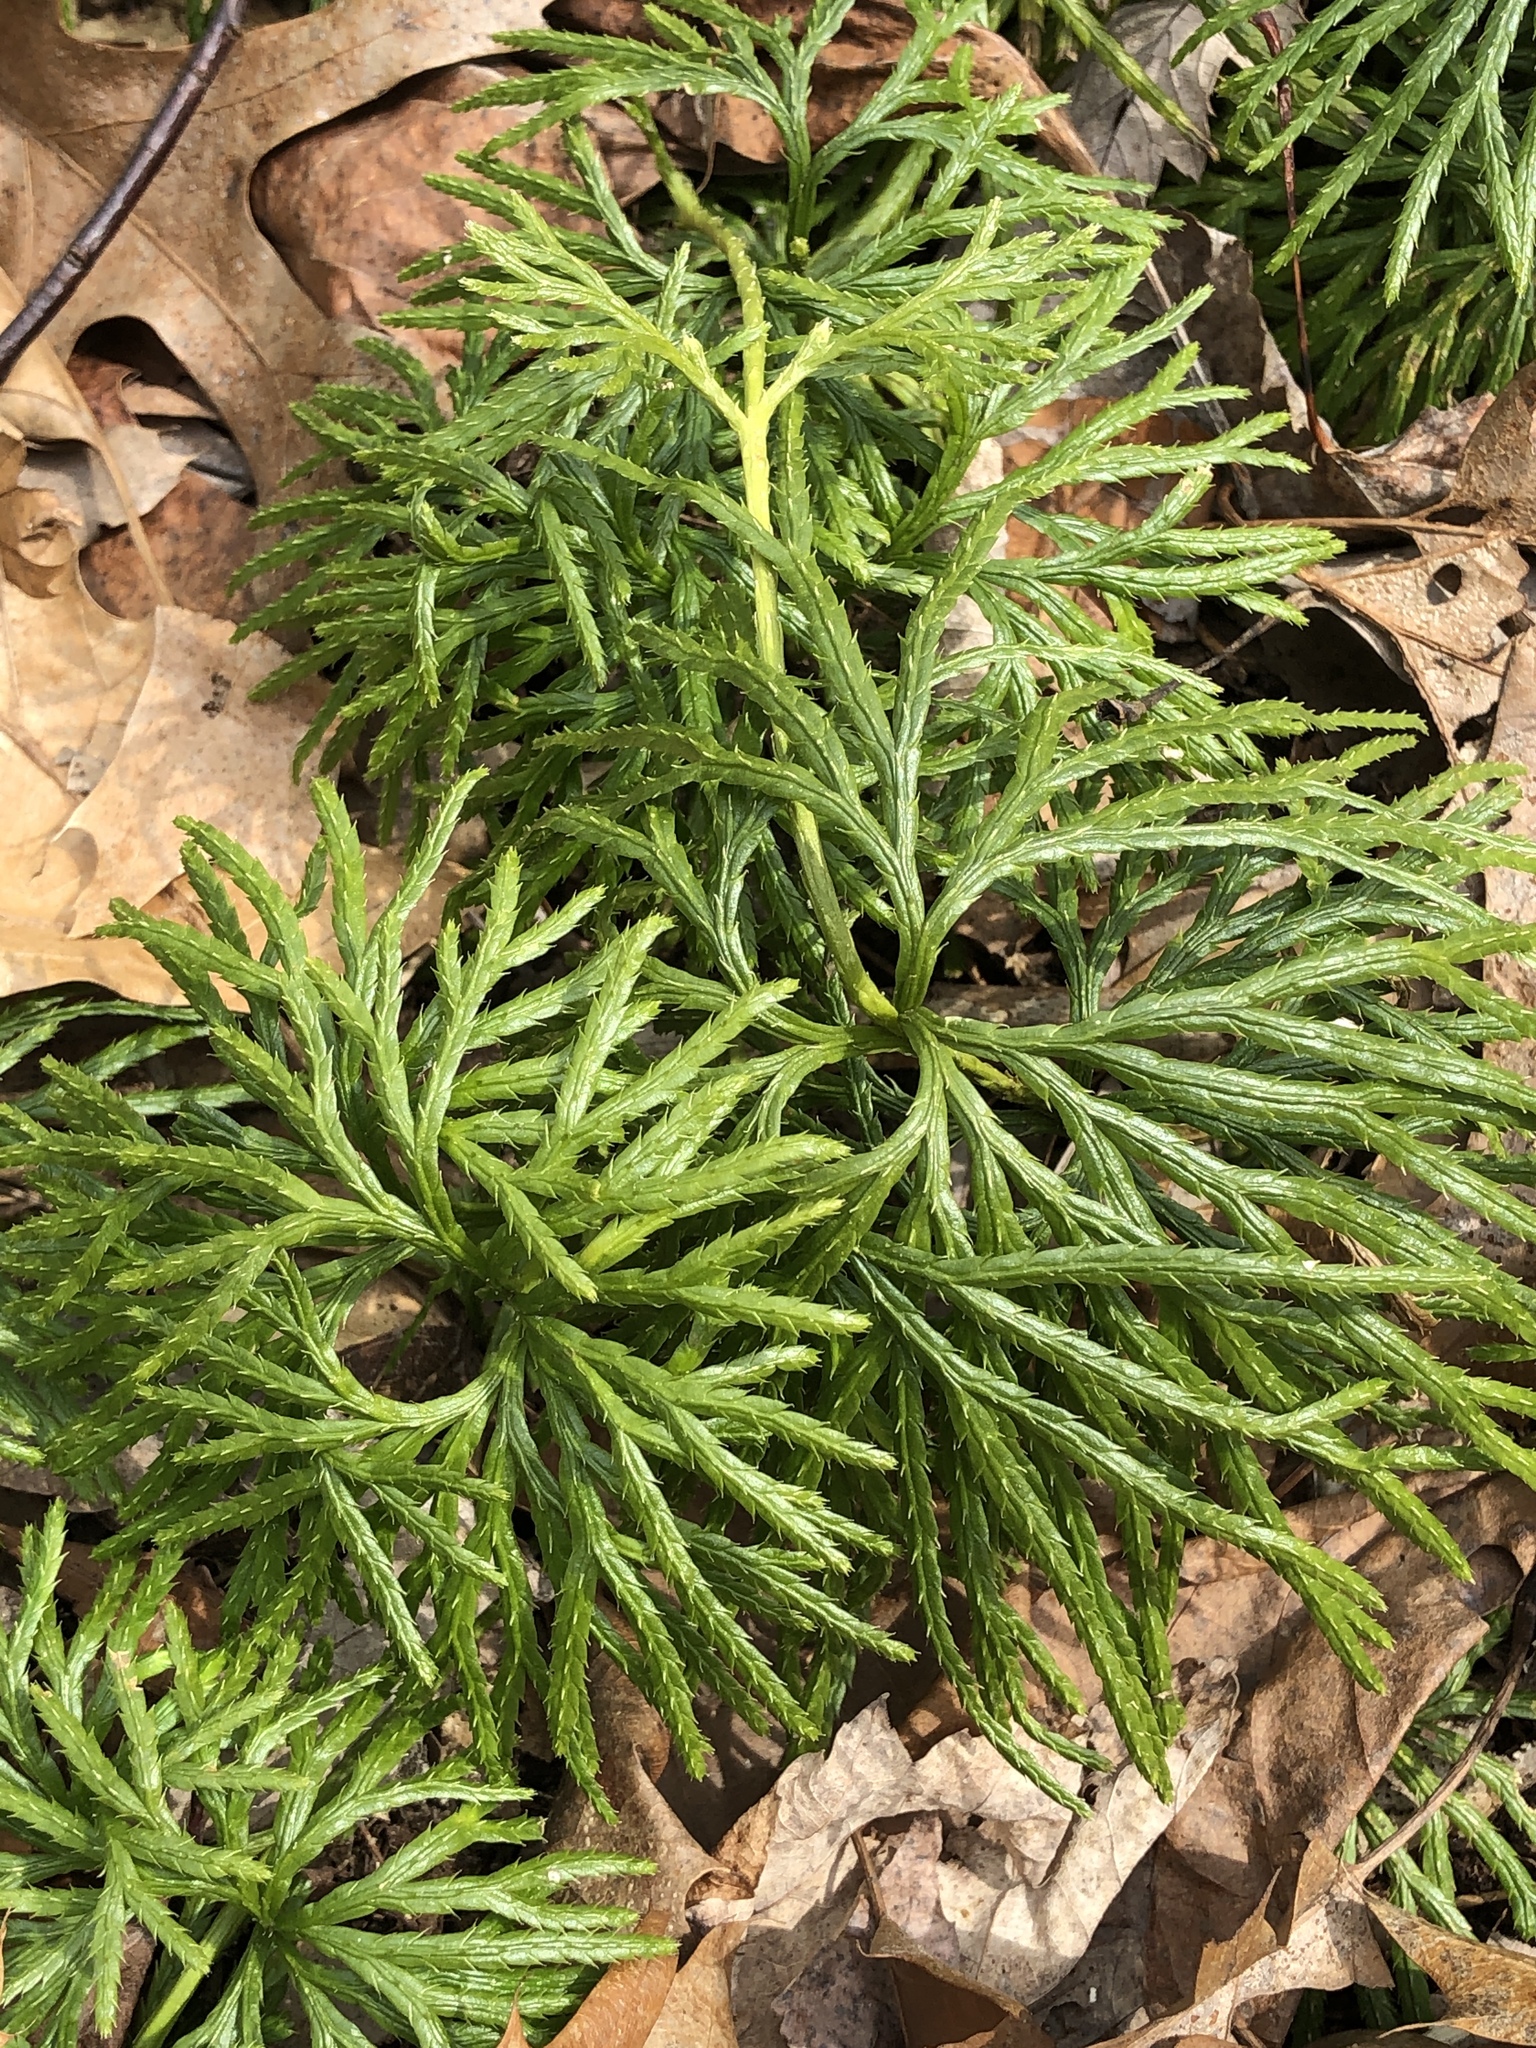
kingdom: Plantae
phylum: Tracheophyta
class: Lycopodiopsida
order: Lycopodiales
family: Lycopodiaceae
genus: Diphasiastrum
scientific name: Diphasiastrum digitatum
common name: Southern running-pine
